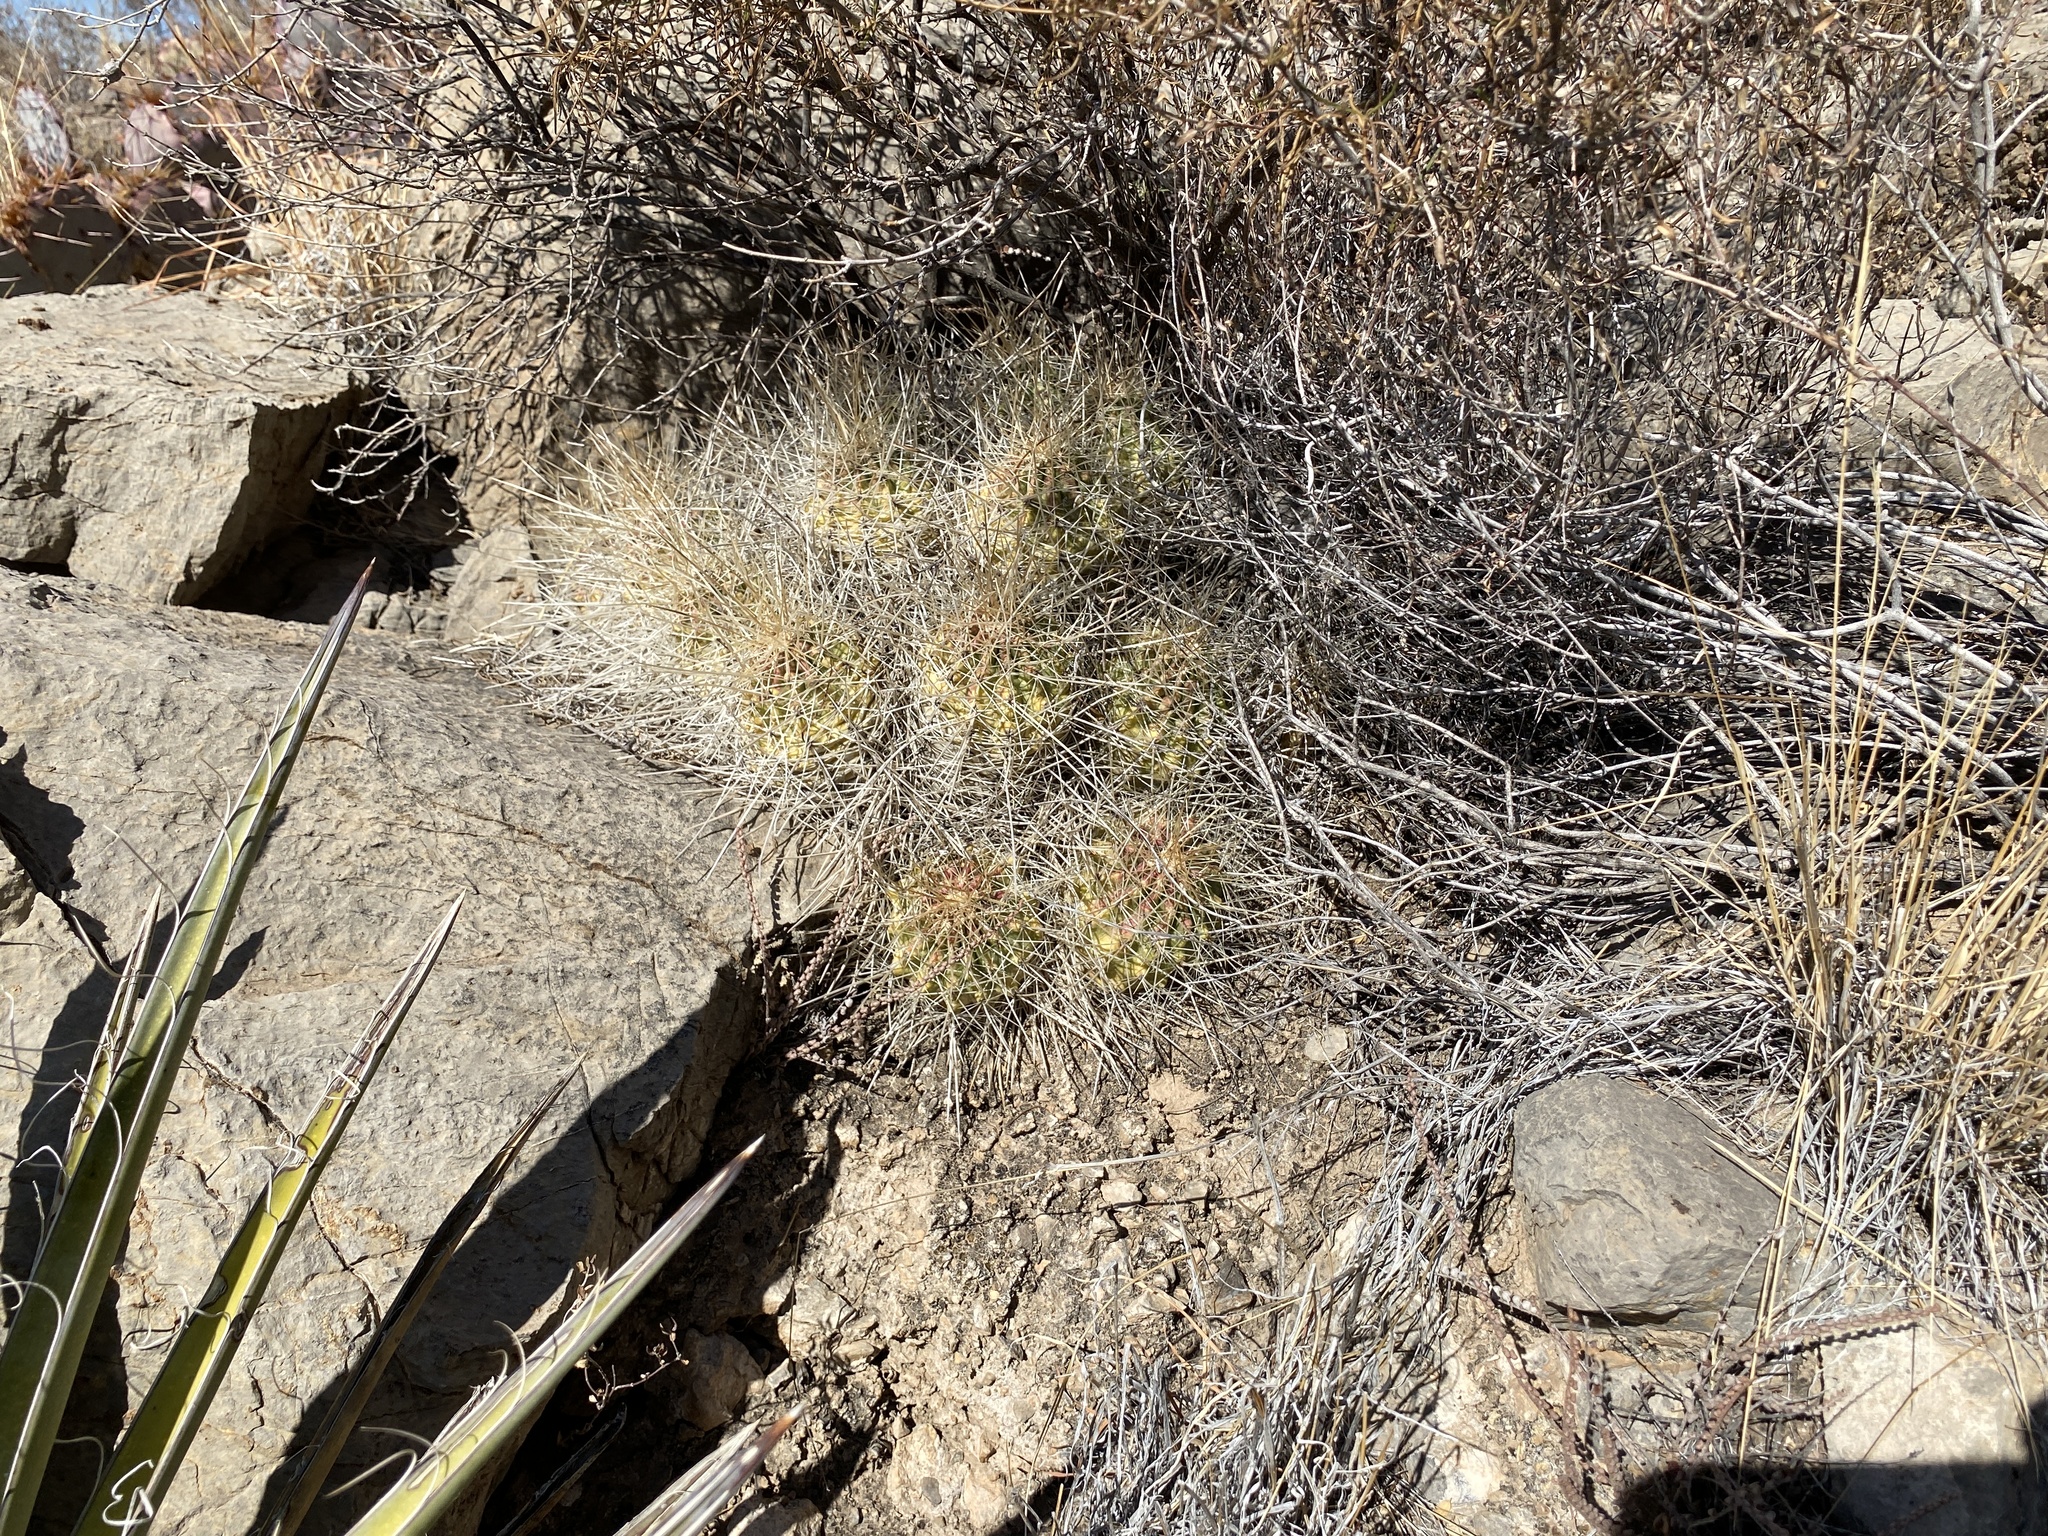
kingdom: Plantae
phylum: Tracheophyta
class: Magnoliopsida
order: Caryophyllales
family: Cactaceae
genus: Echinocereus
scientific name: Echinocereus stramineus
